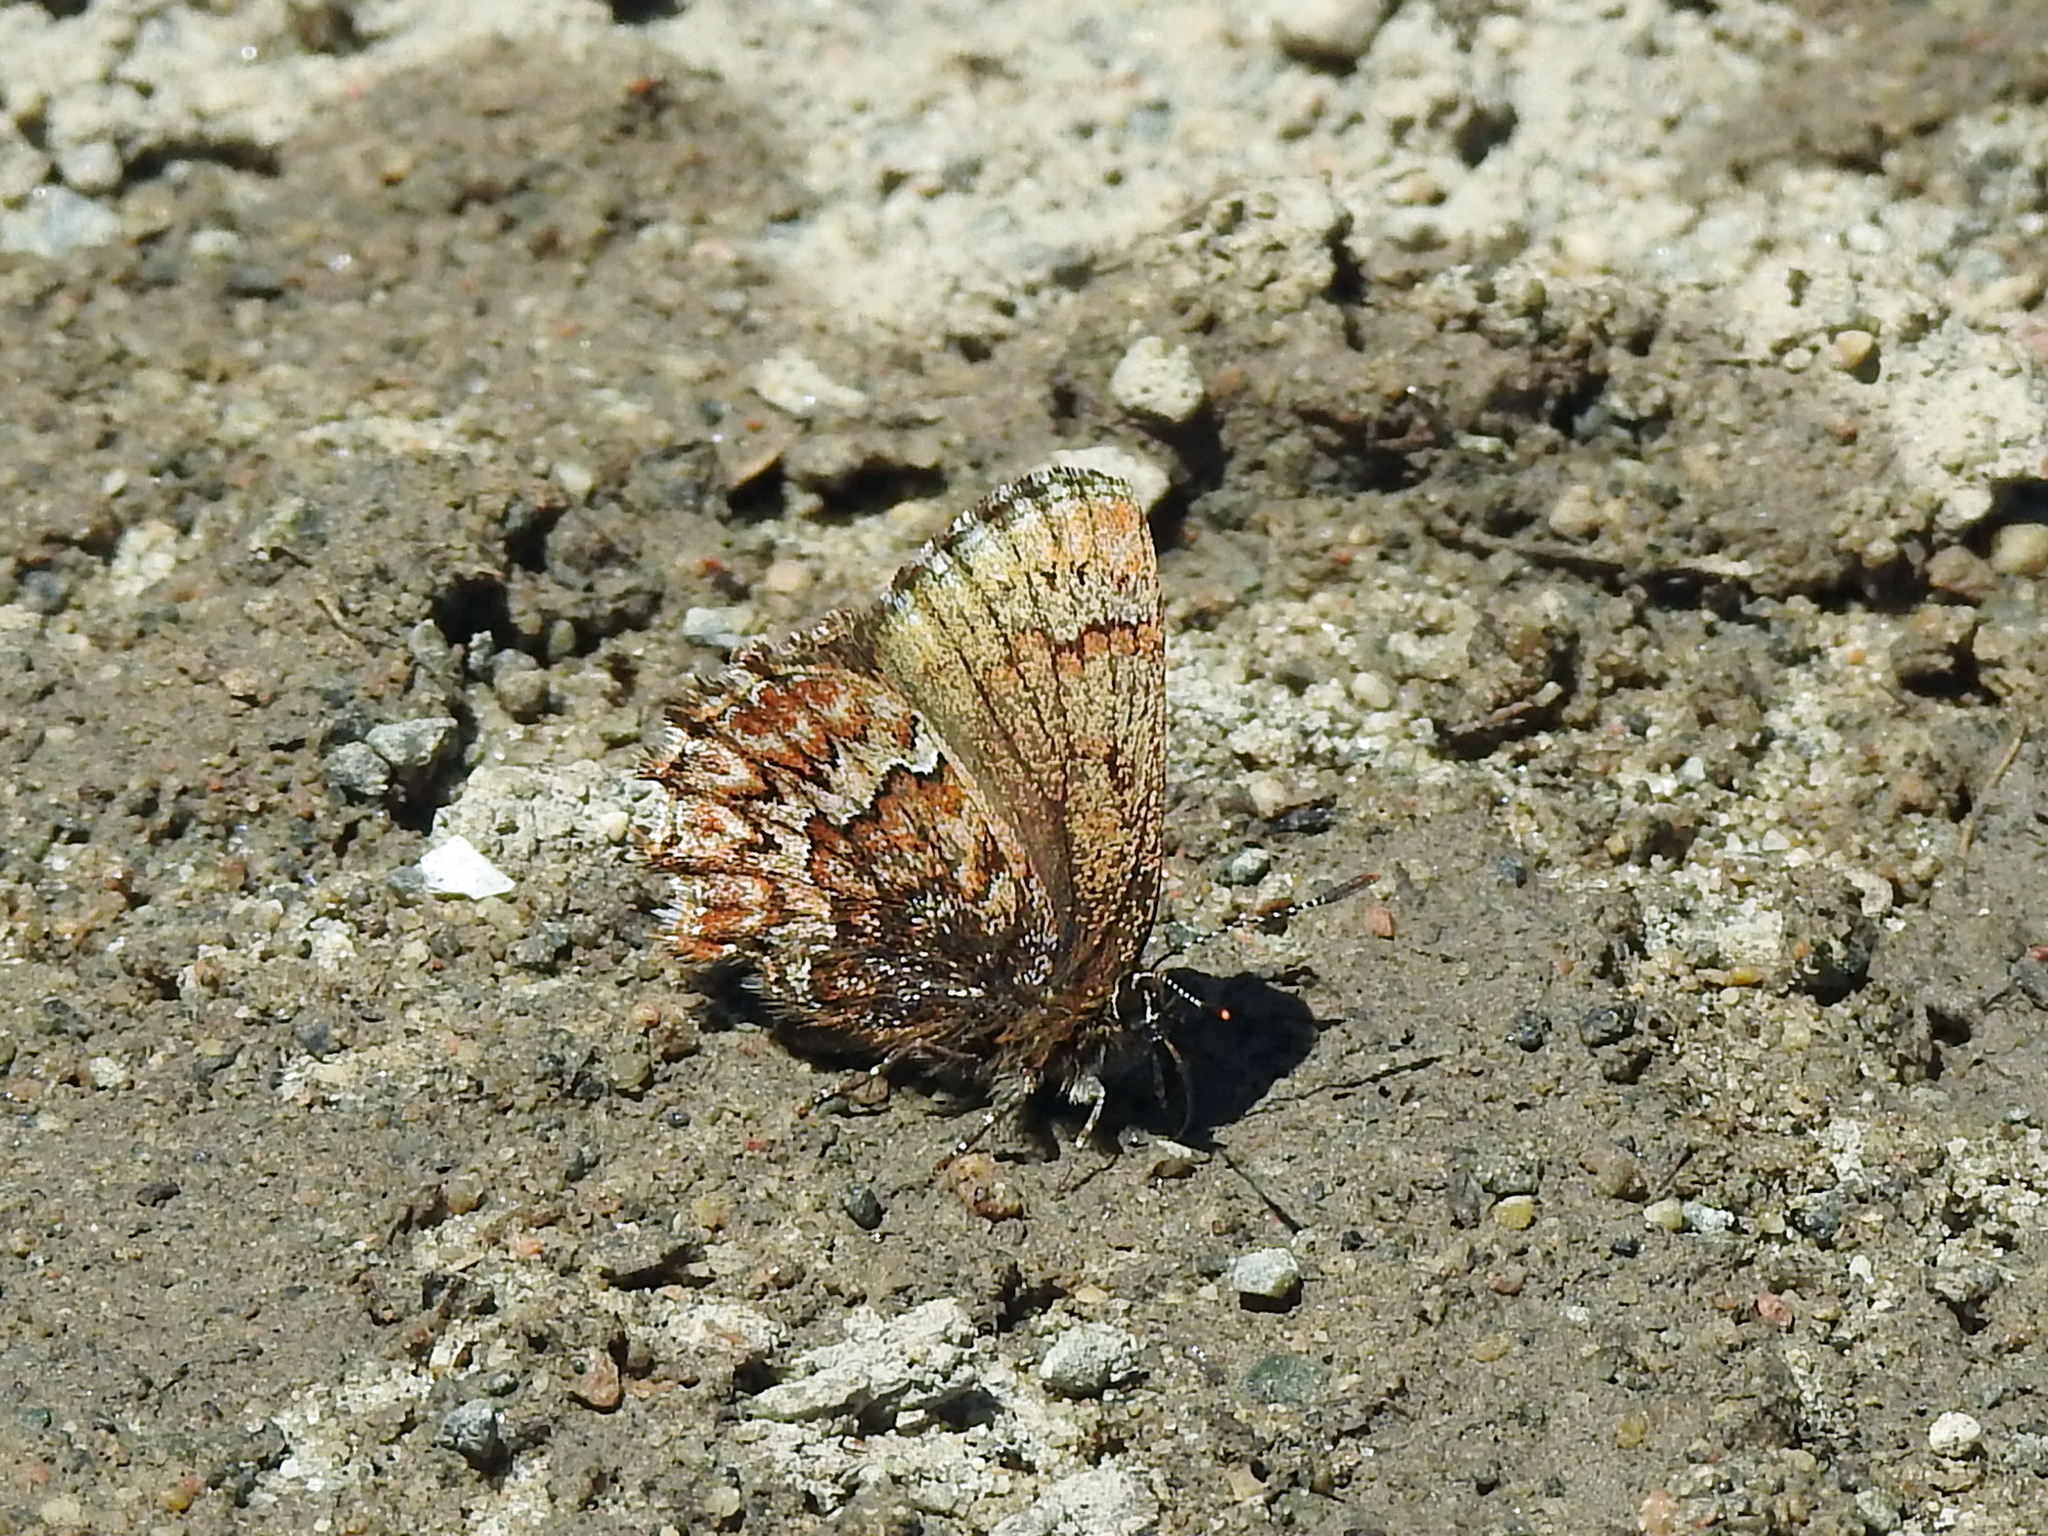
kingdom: Animalia
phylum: Arthropoda
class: Insecta
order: Lepidoptera
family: Lycaenidae
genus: Incisalia
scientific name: Incisalia eryphon
